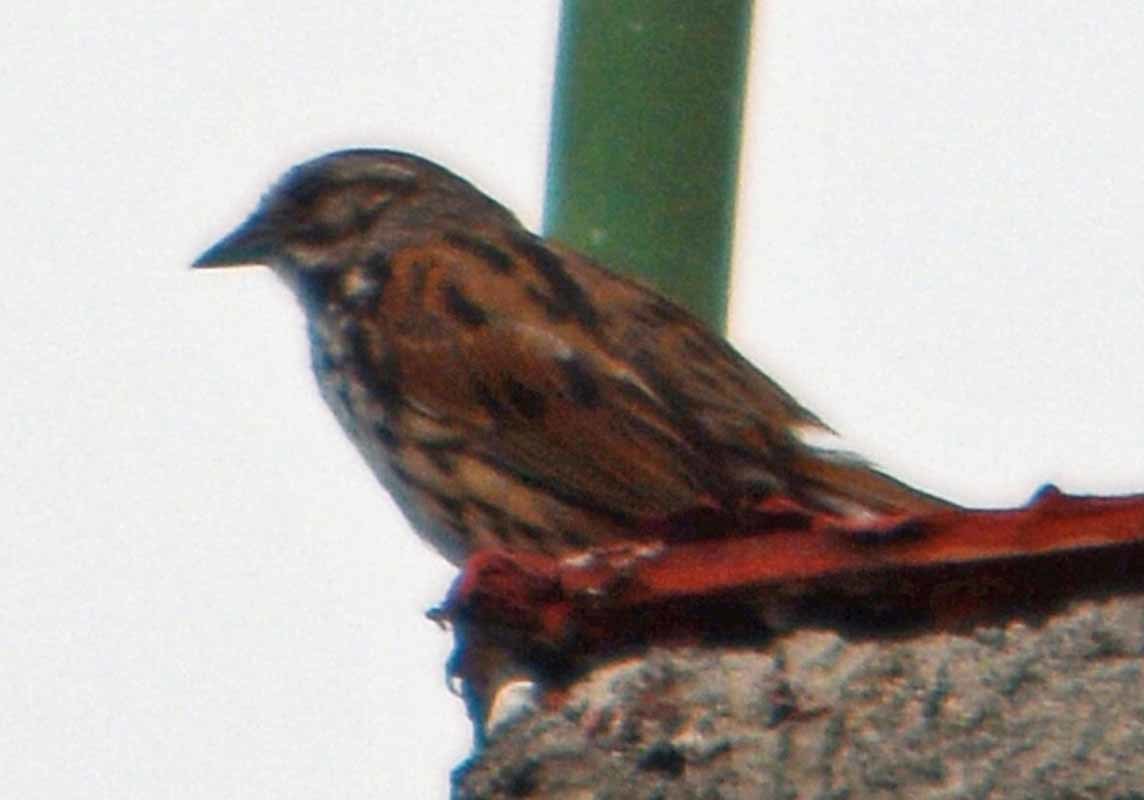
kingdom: Animalia
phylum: Chordata
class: Aves
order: Passeriformes
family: Passerellidae
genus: Melospiza
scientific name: Melospiza melodia
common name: Song sparrow
